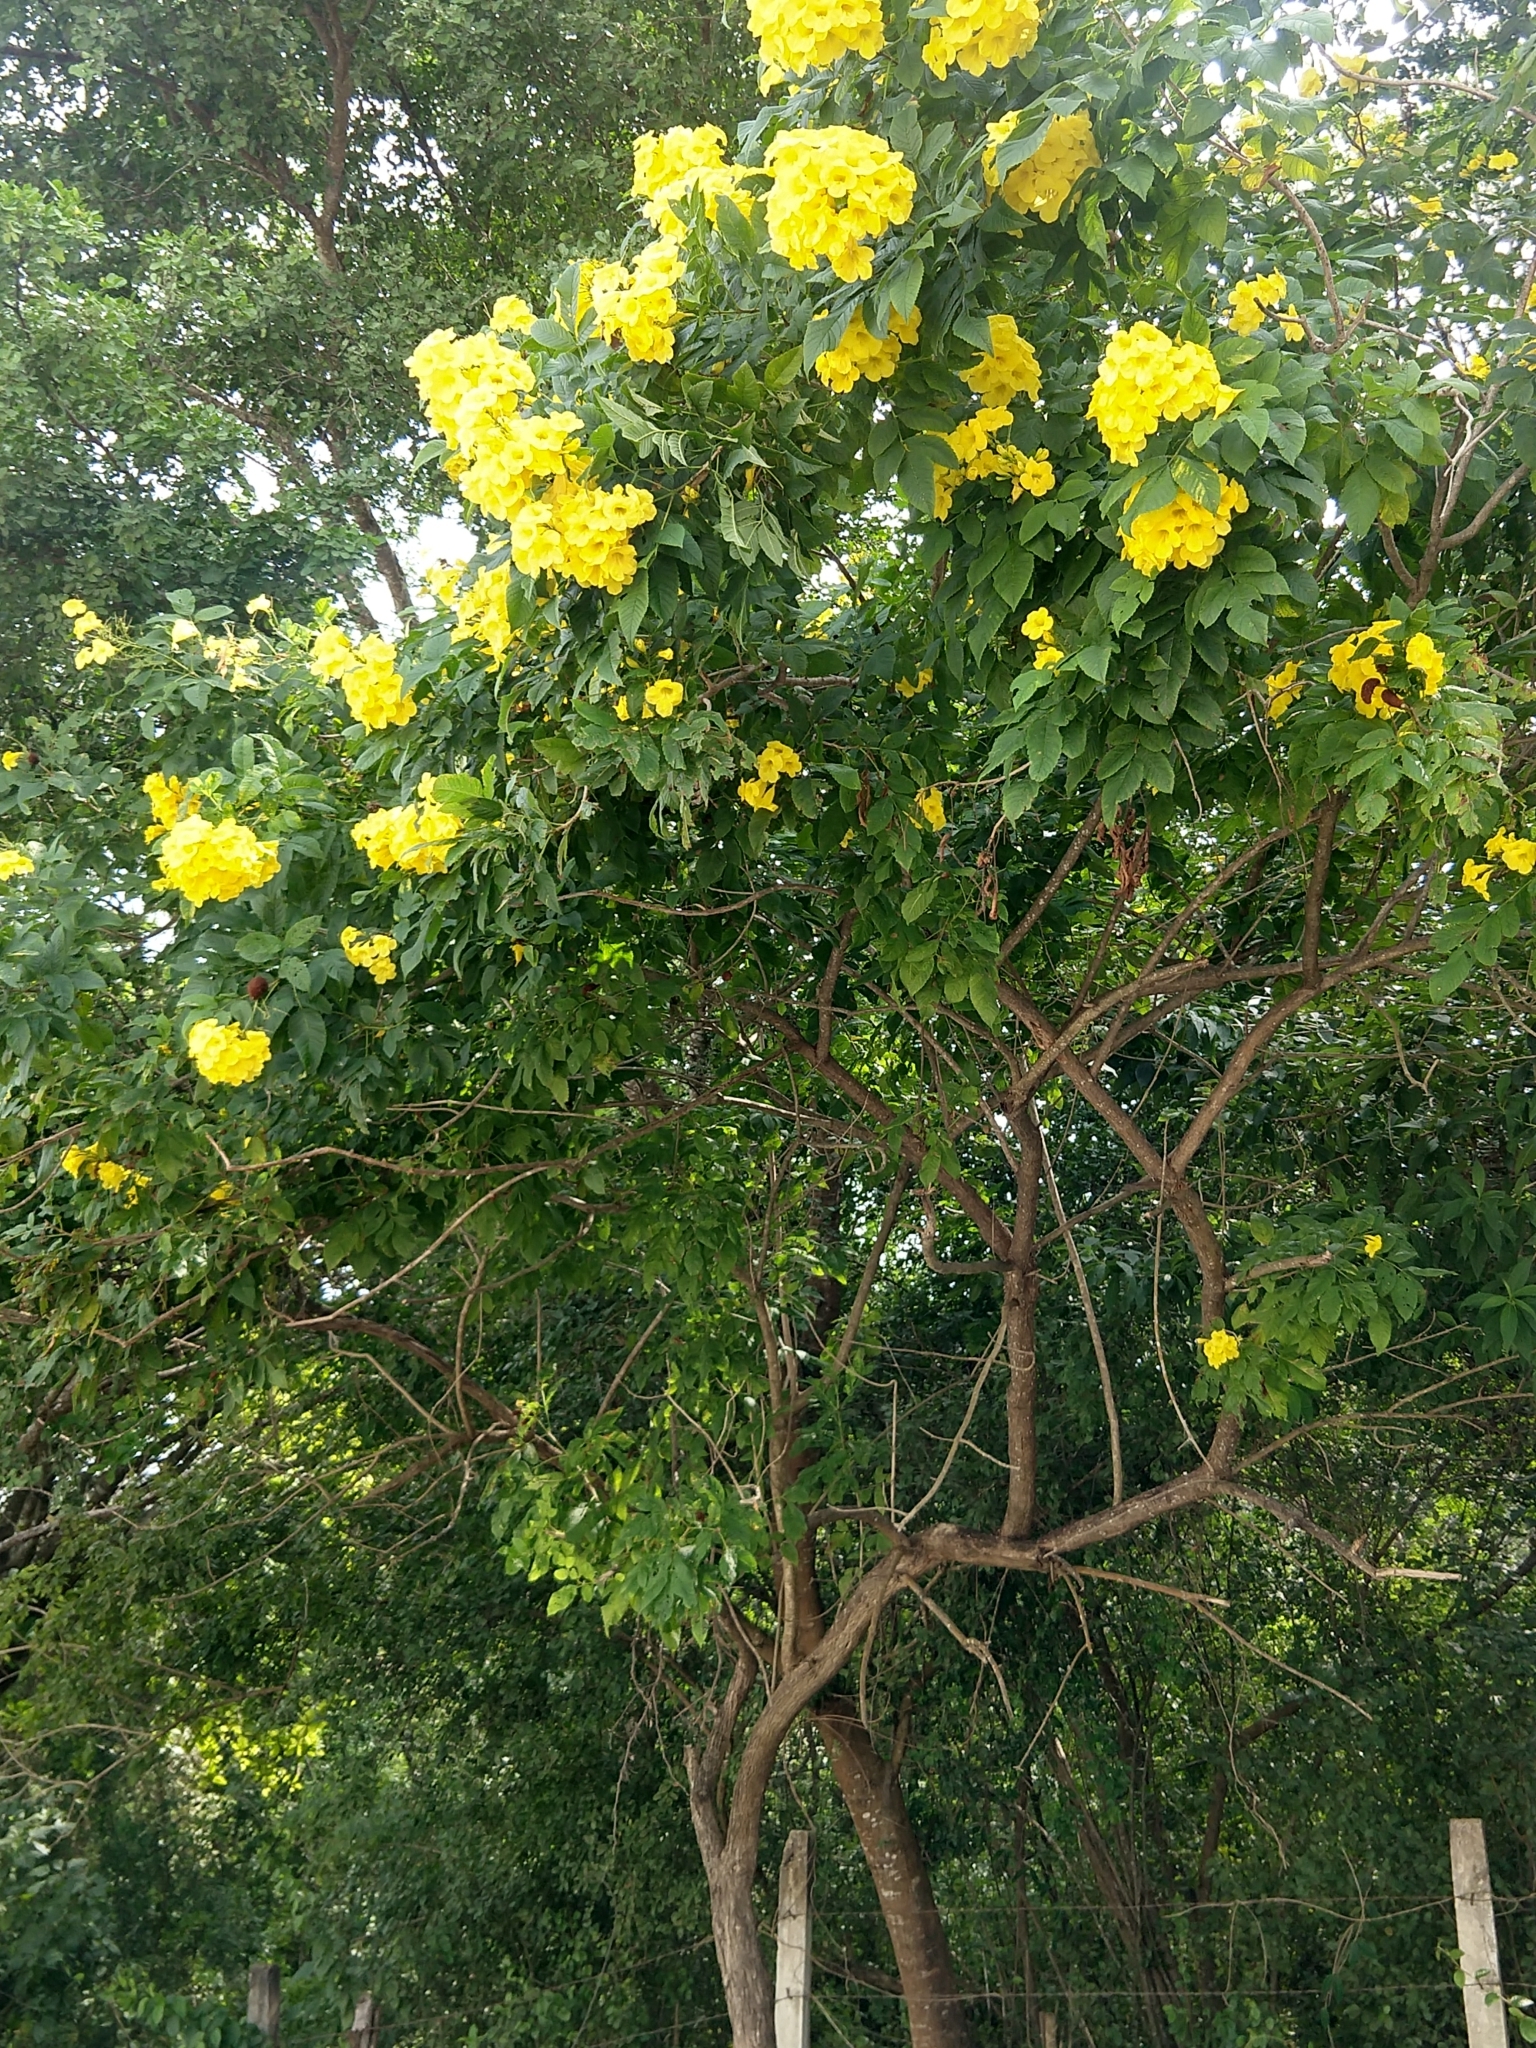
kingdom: Plantae
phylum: Tracheophyta
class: Magnoliopsida
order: Lamiales
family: Bignoniaceae
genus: Tecoma
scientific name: Tecoma stans
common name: Yellow trumpetbush
